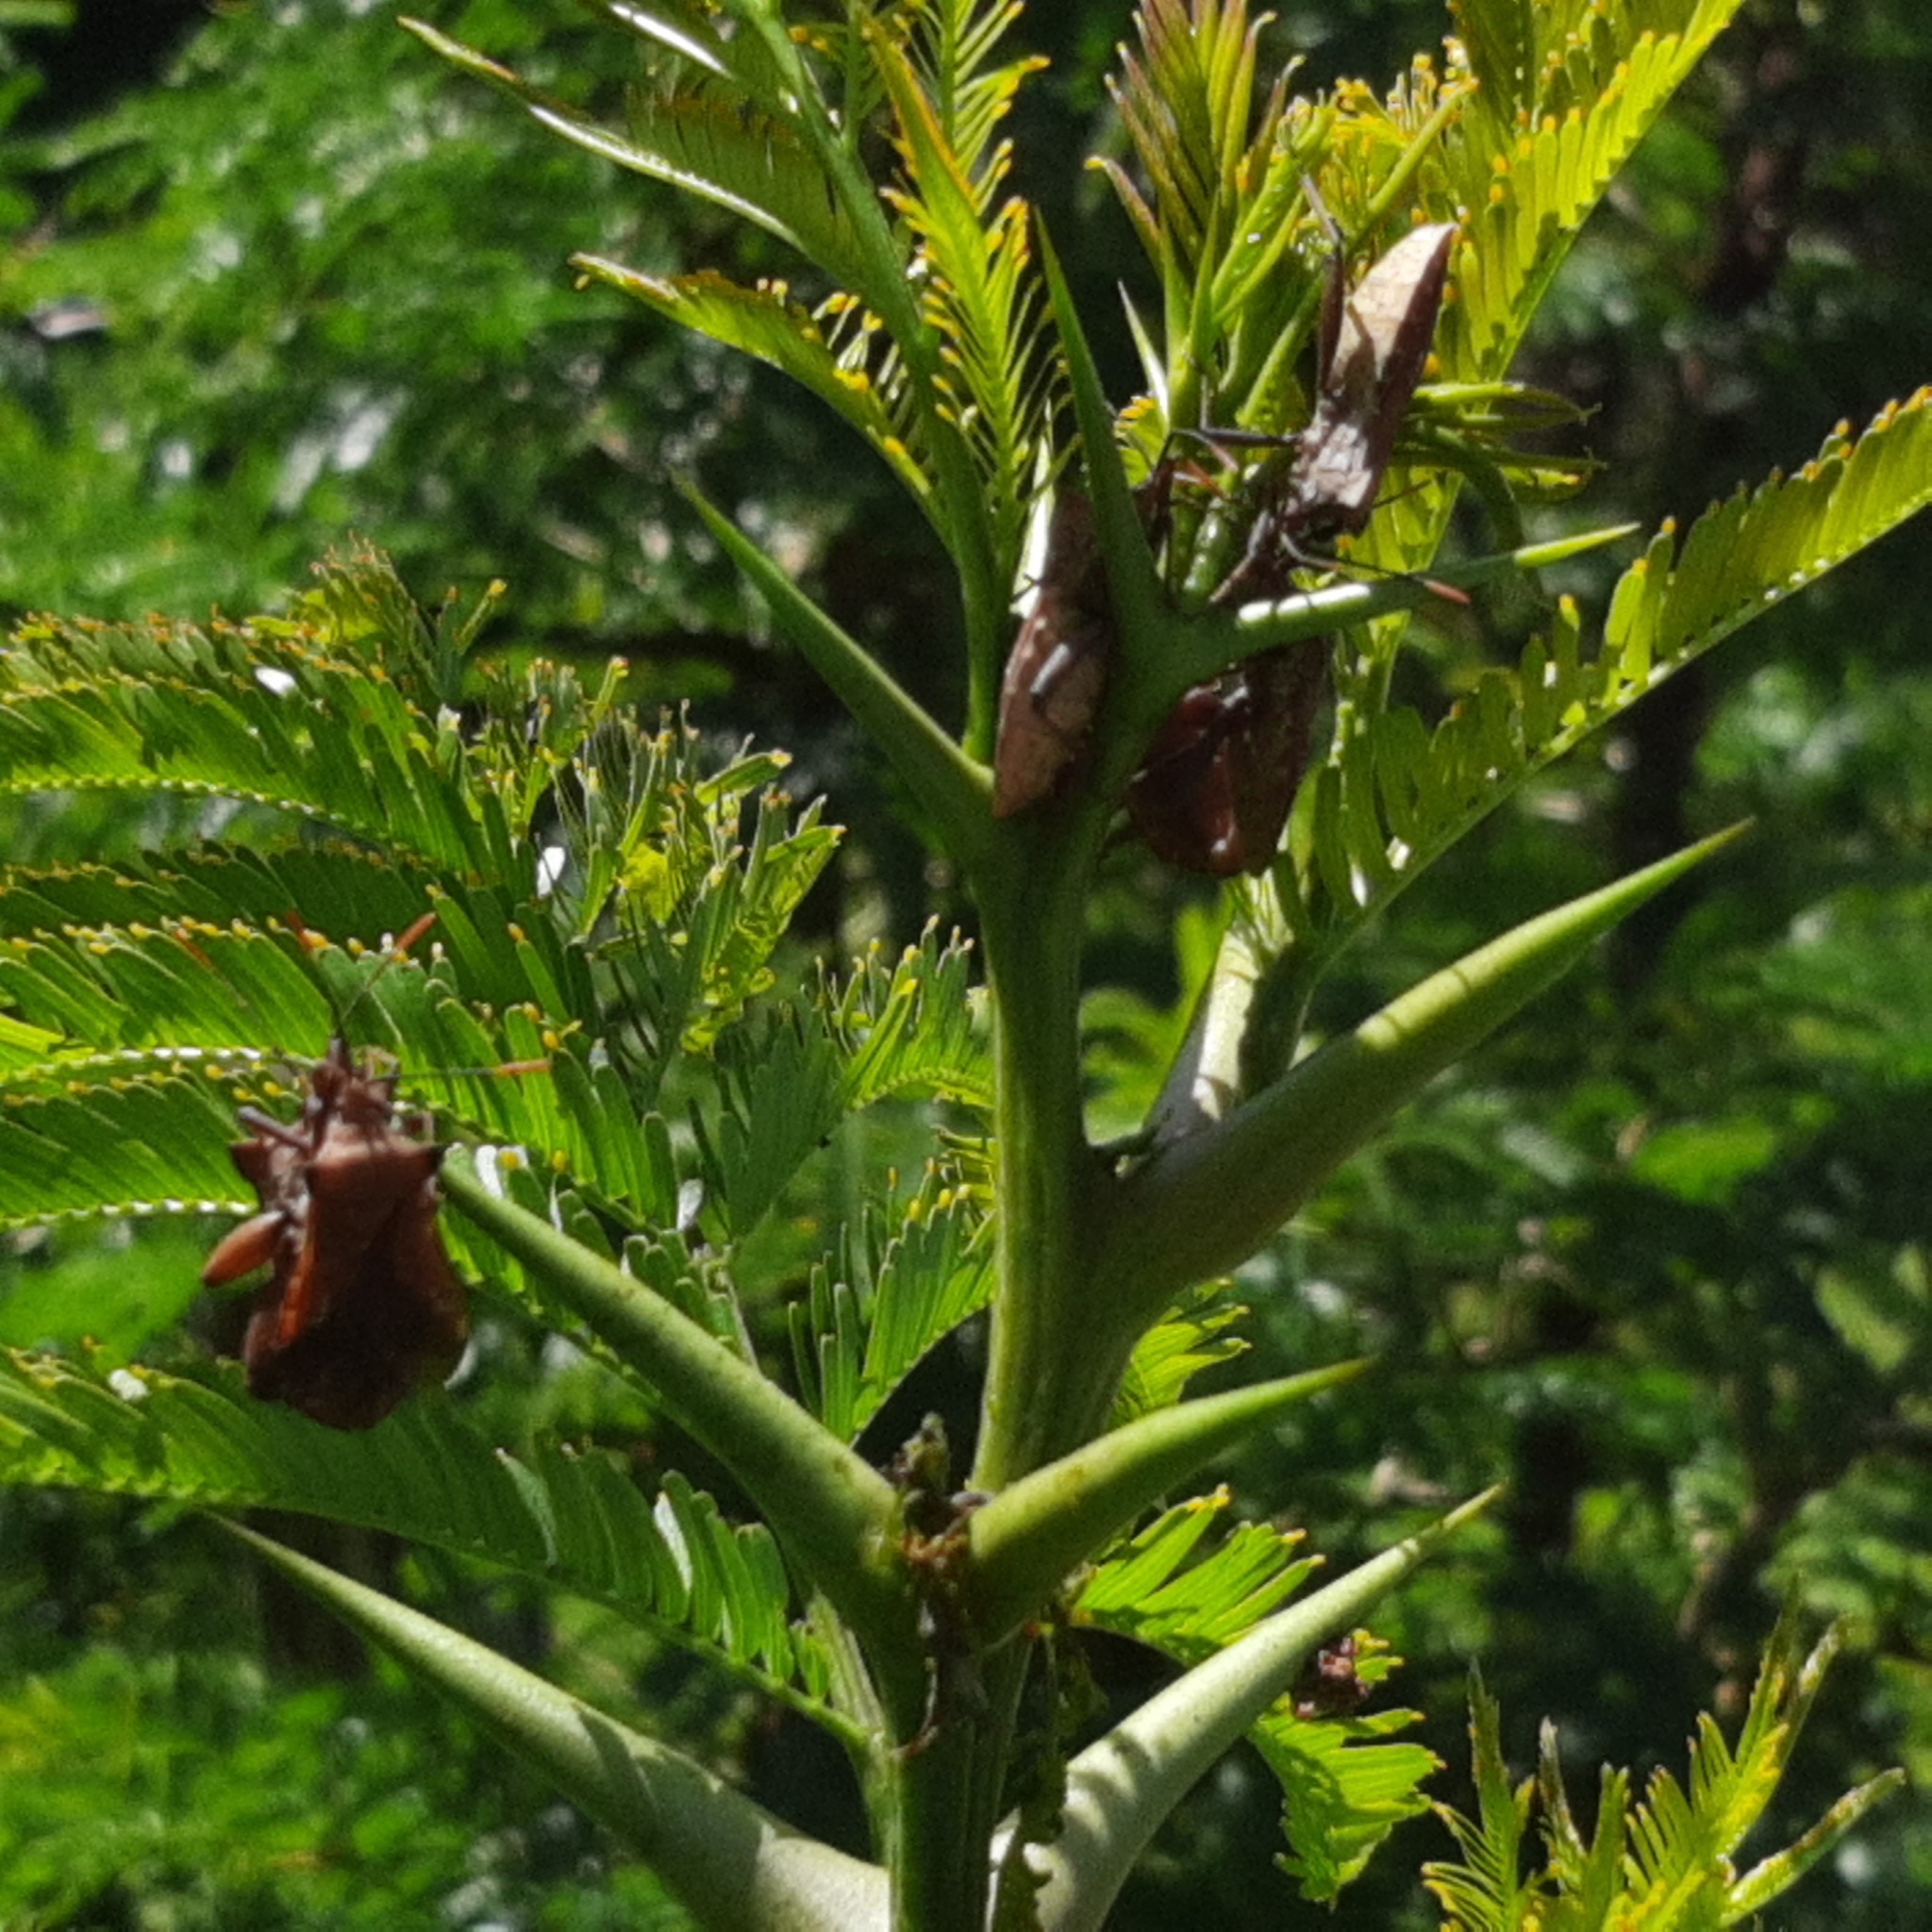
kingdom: Animalia
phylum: Arthropoda
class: Insecta
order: Hemiptera
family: Coreidae
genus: Mozena
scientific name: Mozena lurida
